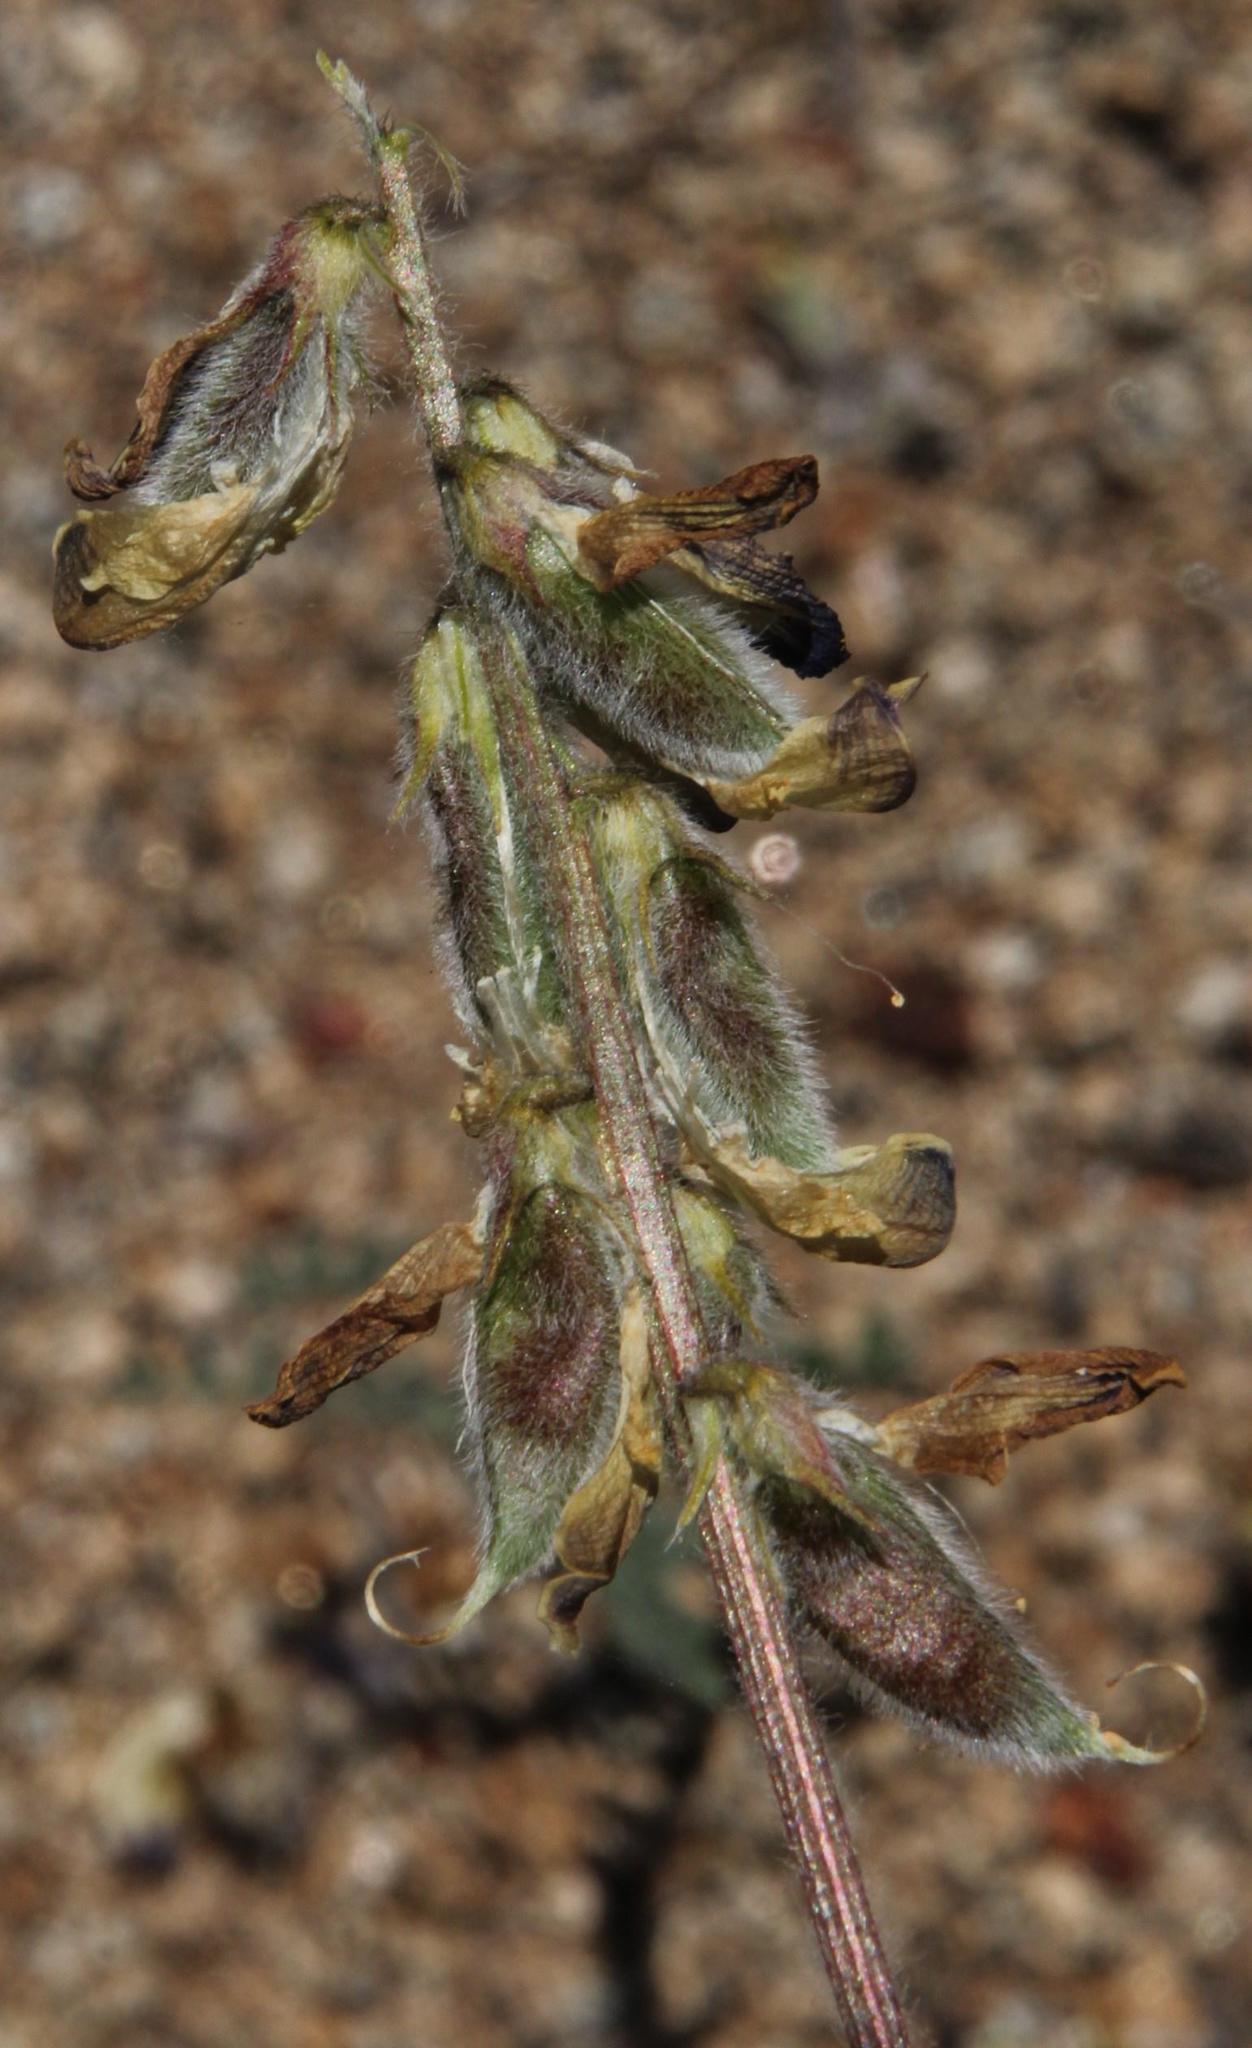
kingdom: Plantae
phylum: Tracheophyta
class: Magnoliopsida
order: Fabales
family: Fabaceae
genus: Astragalus
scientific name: Astragalus amatus
